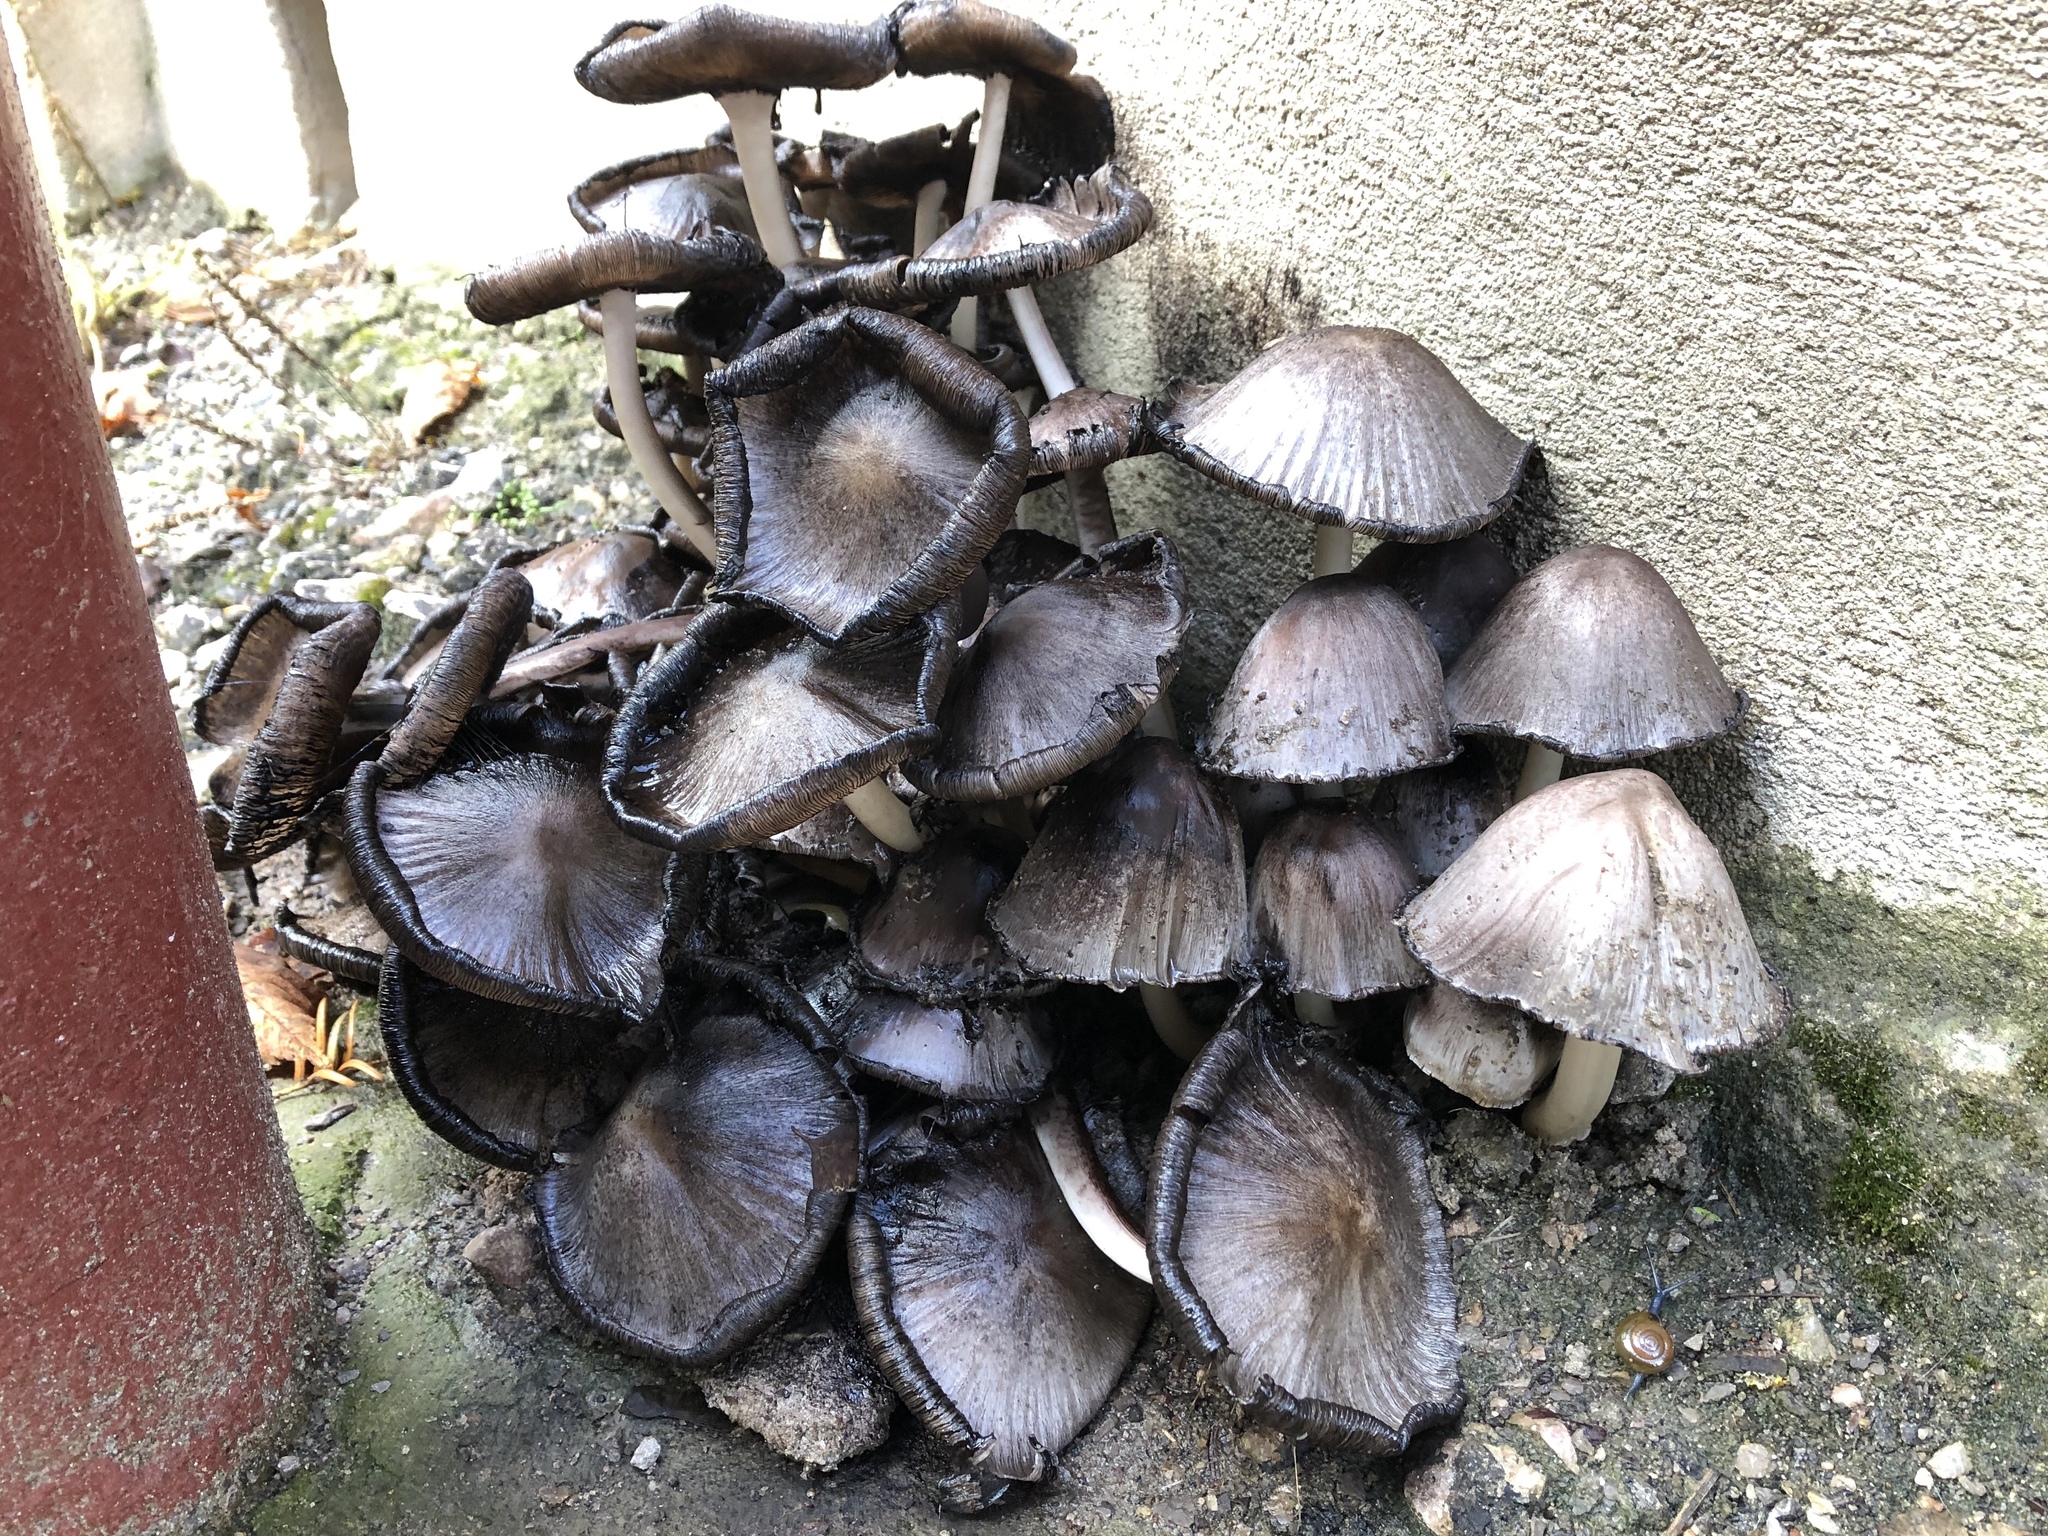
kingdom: Fungi
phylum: Basidiomycota
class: Agaricomycetes
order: Agaricales
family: Psathyrellaceae
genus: Coprinopsis
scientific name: Coprinopsis atramentaria
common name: Common ink-cap
